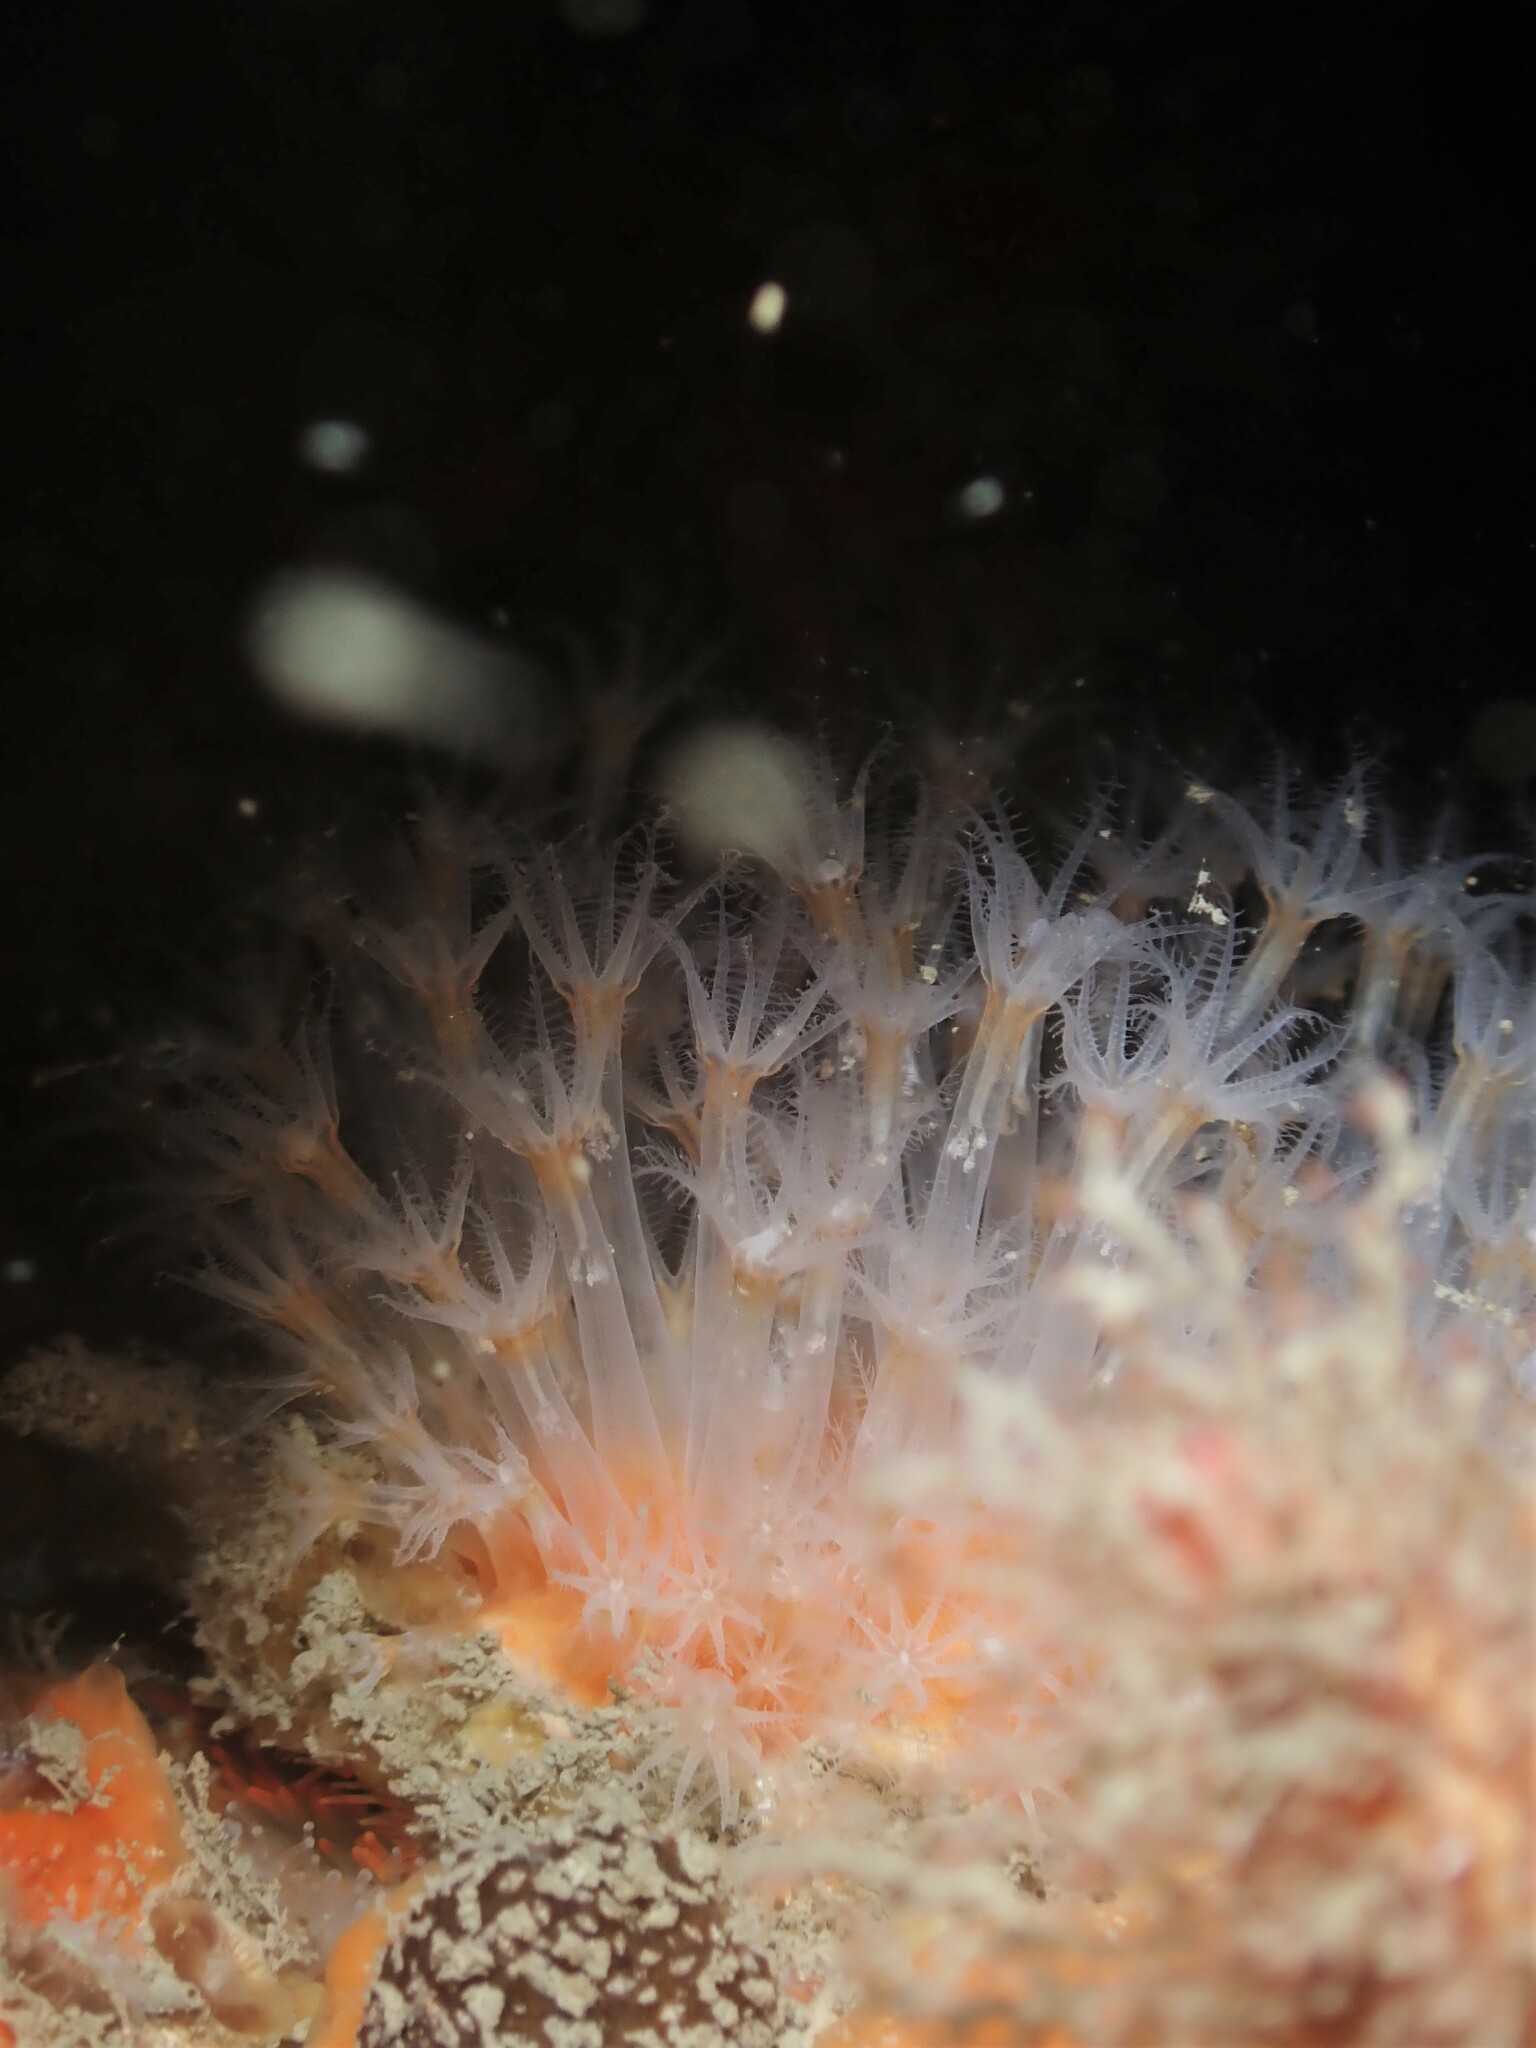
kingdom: Animalia
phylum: Cnidaria
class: Anthozoa
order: Malacalcyonacea
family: Alcyoniidae
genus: Ushanaia
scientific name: Ushanaia fervens
